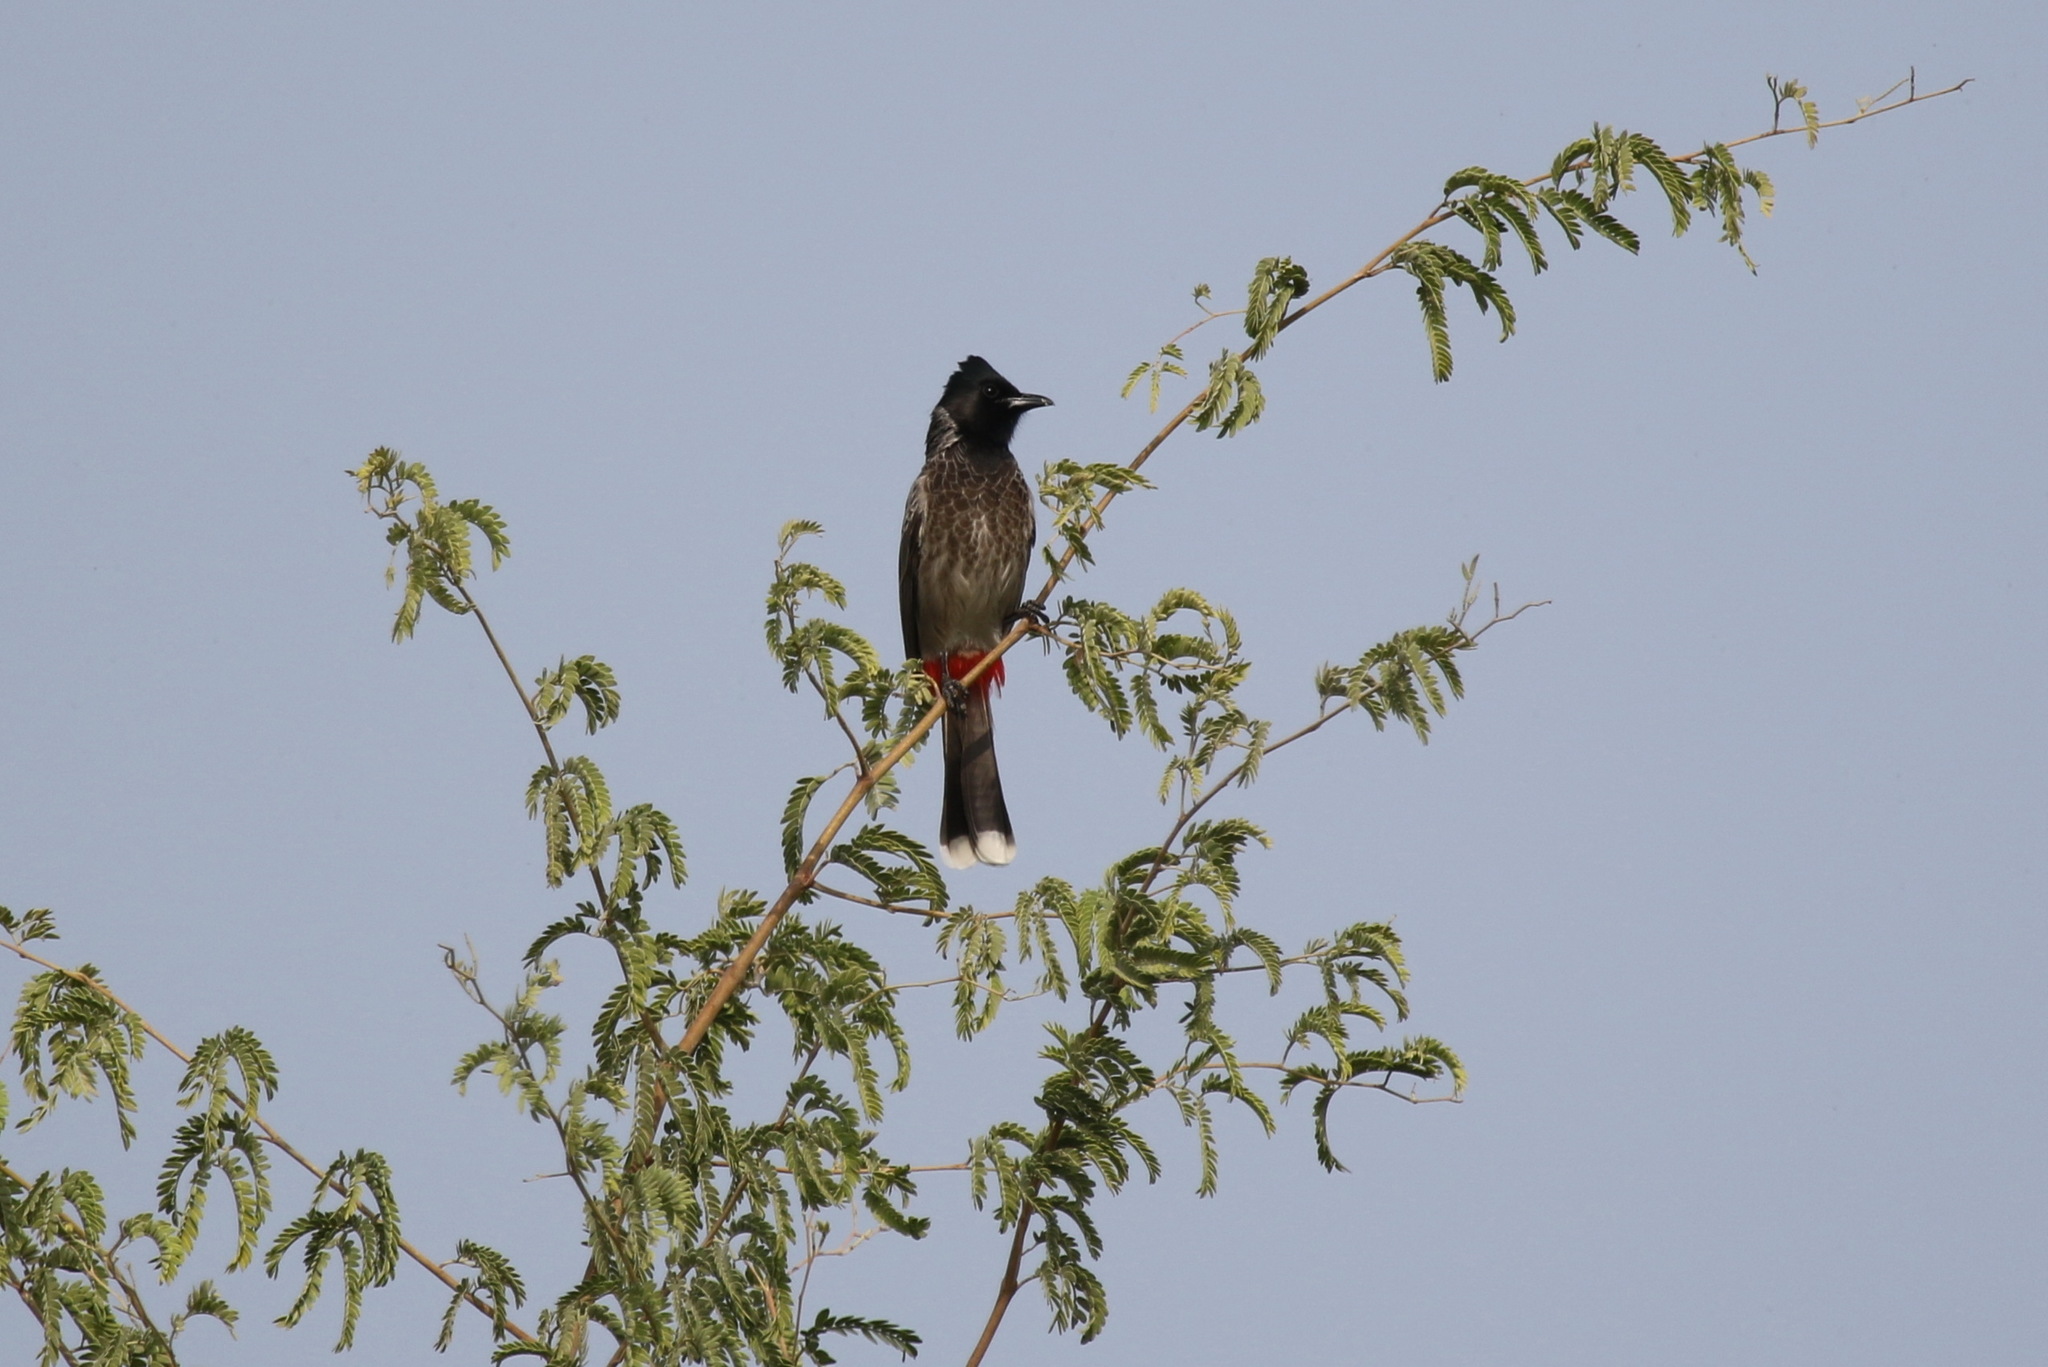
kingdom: Animalia
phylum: Chordata
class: Aves
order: Passeriformes
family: Pycnonotidae
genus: Pycnonotus
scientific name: Pycnonotus cafer
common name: Red-vented bulbul
